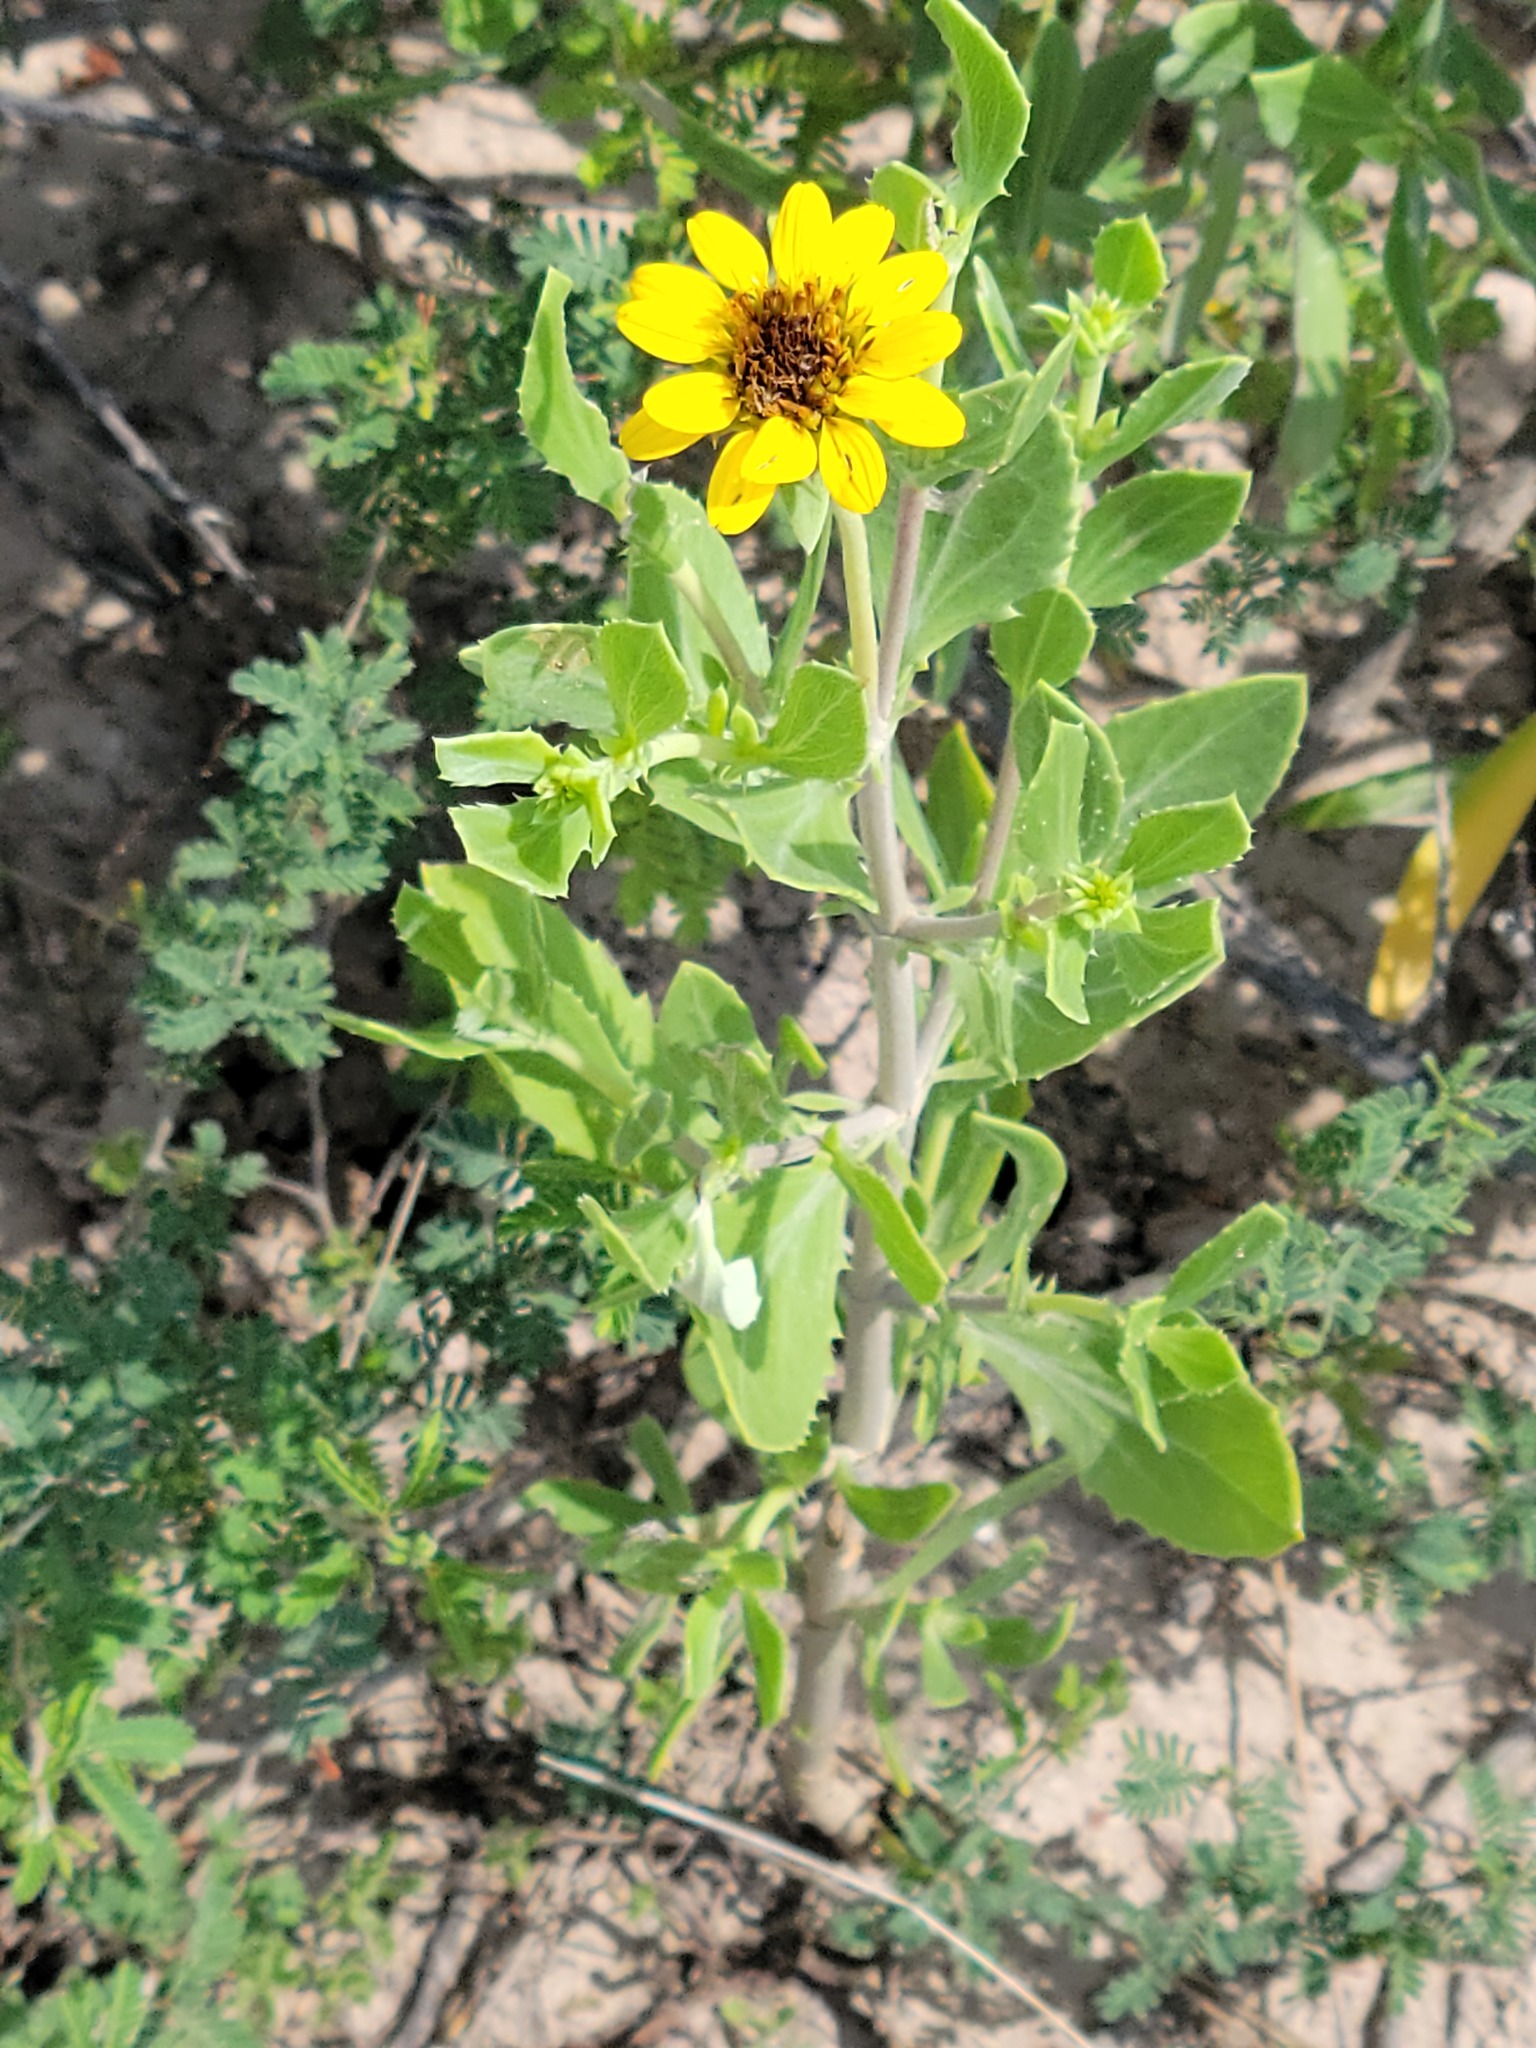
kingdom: Plantae
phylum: Tracheophyta
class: Magnoliopsida
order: Asterales
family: Asteraceae
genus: Borrichia
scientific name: Borrichia frutescens
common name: Sea oxeye
